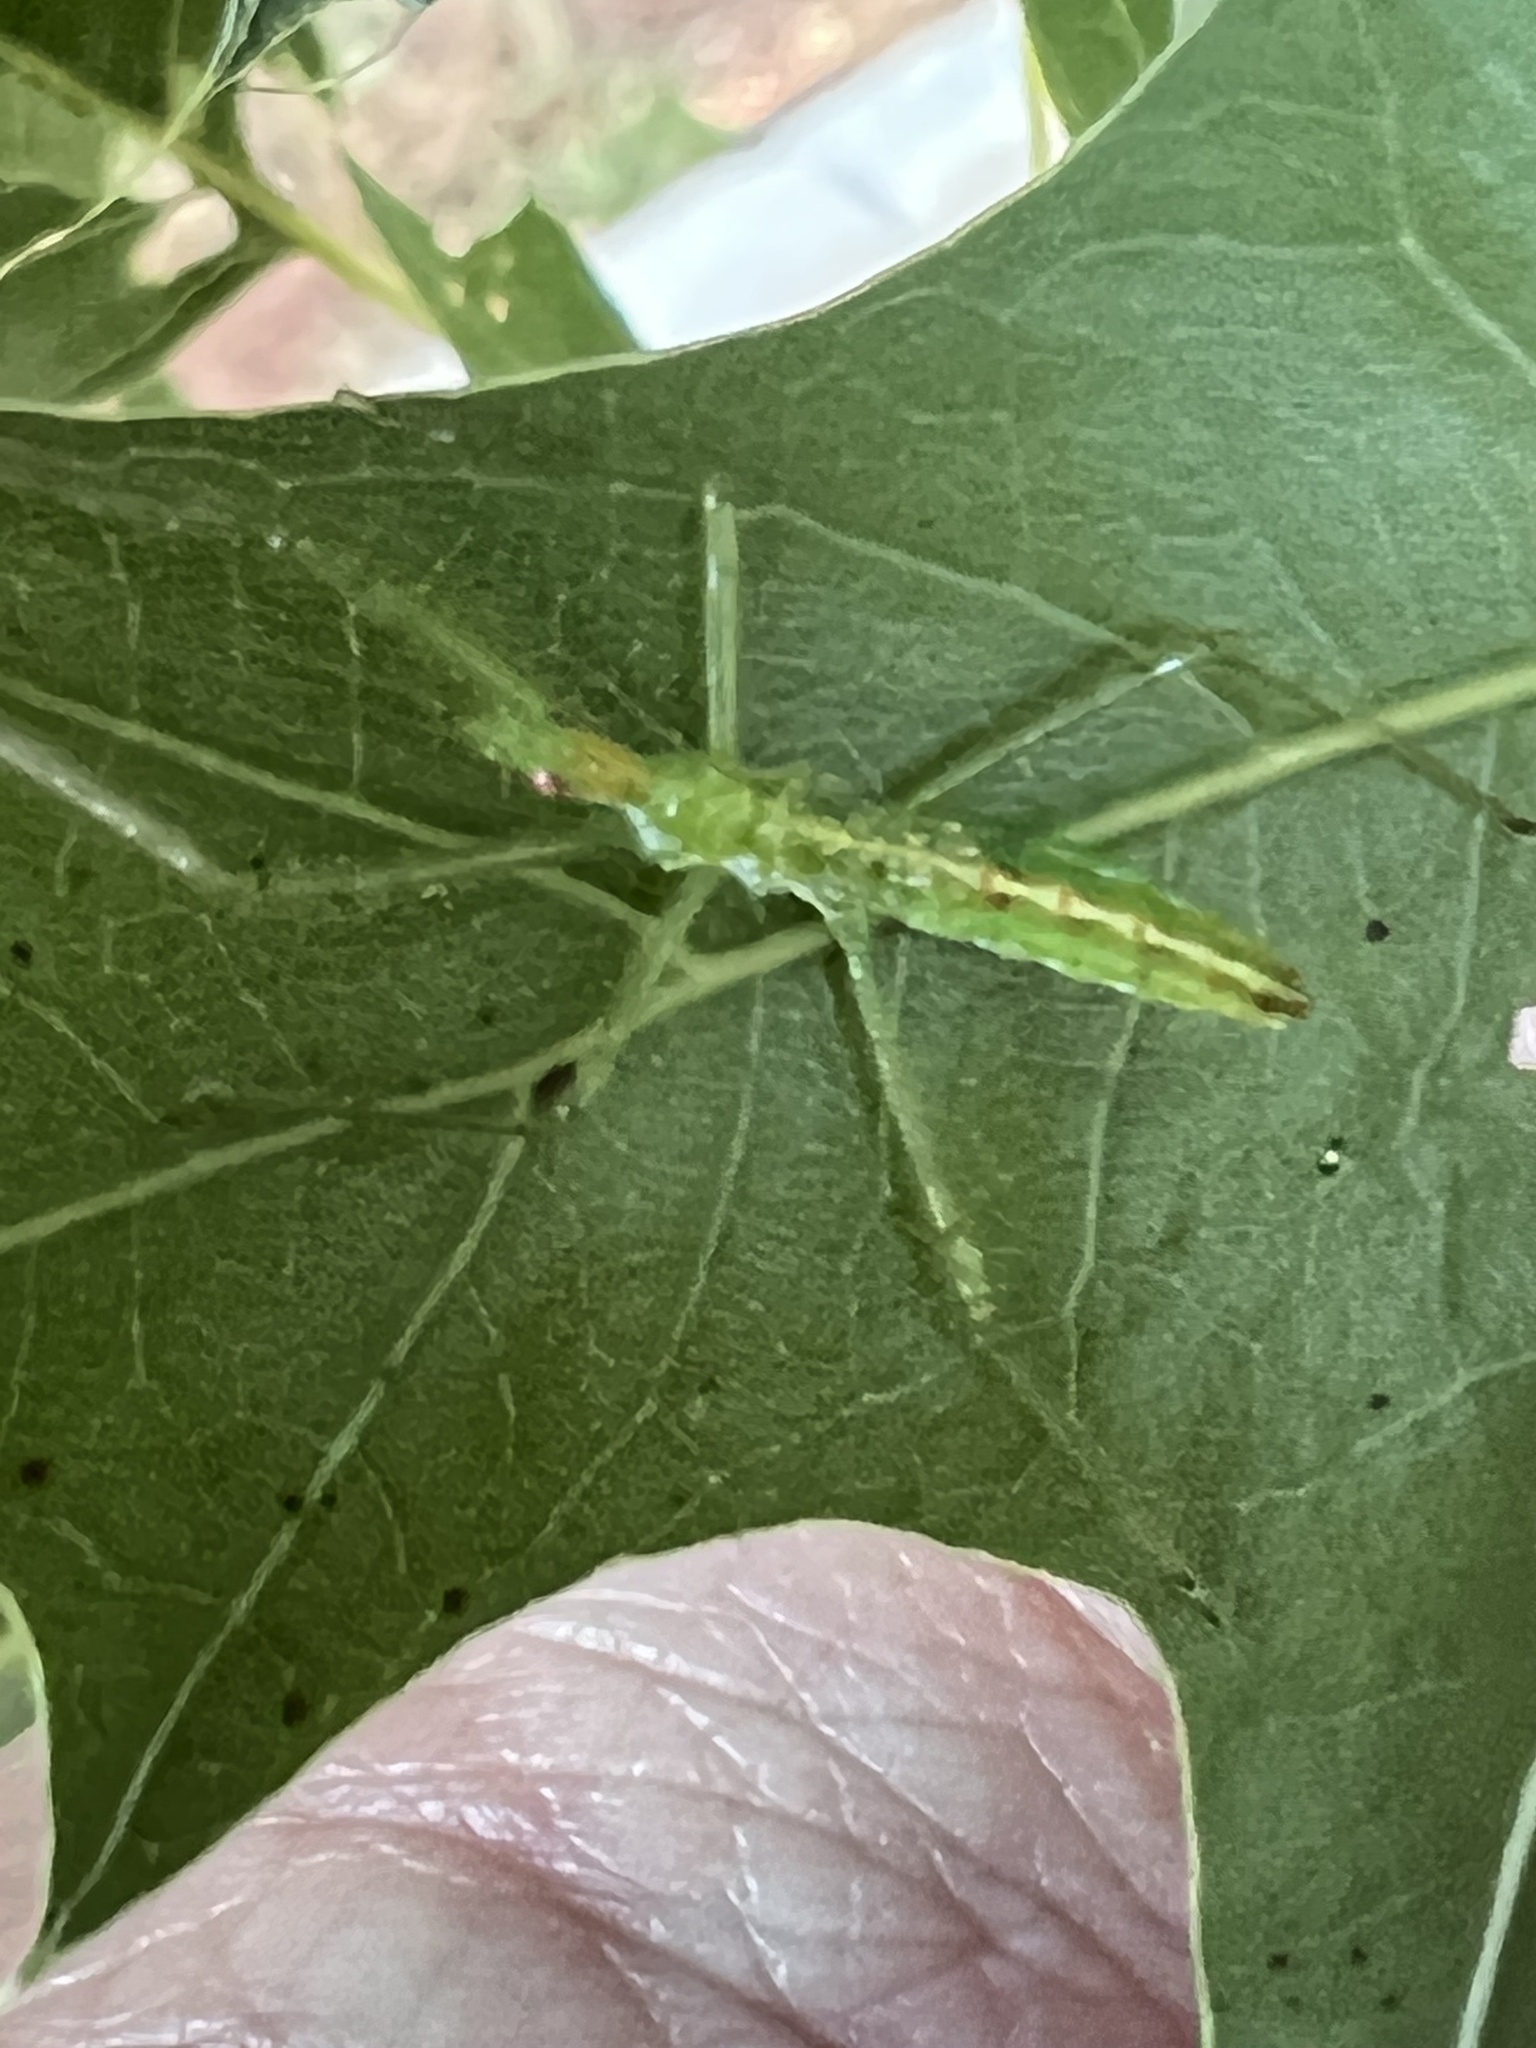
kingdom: Animalia
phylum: Arthropoda
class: Insecta
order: Hemiptera
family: Reduviidae
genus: Zelus
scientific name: Zelus luridus
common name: Pale green assassin bug
